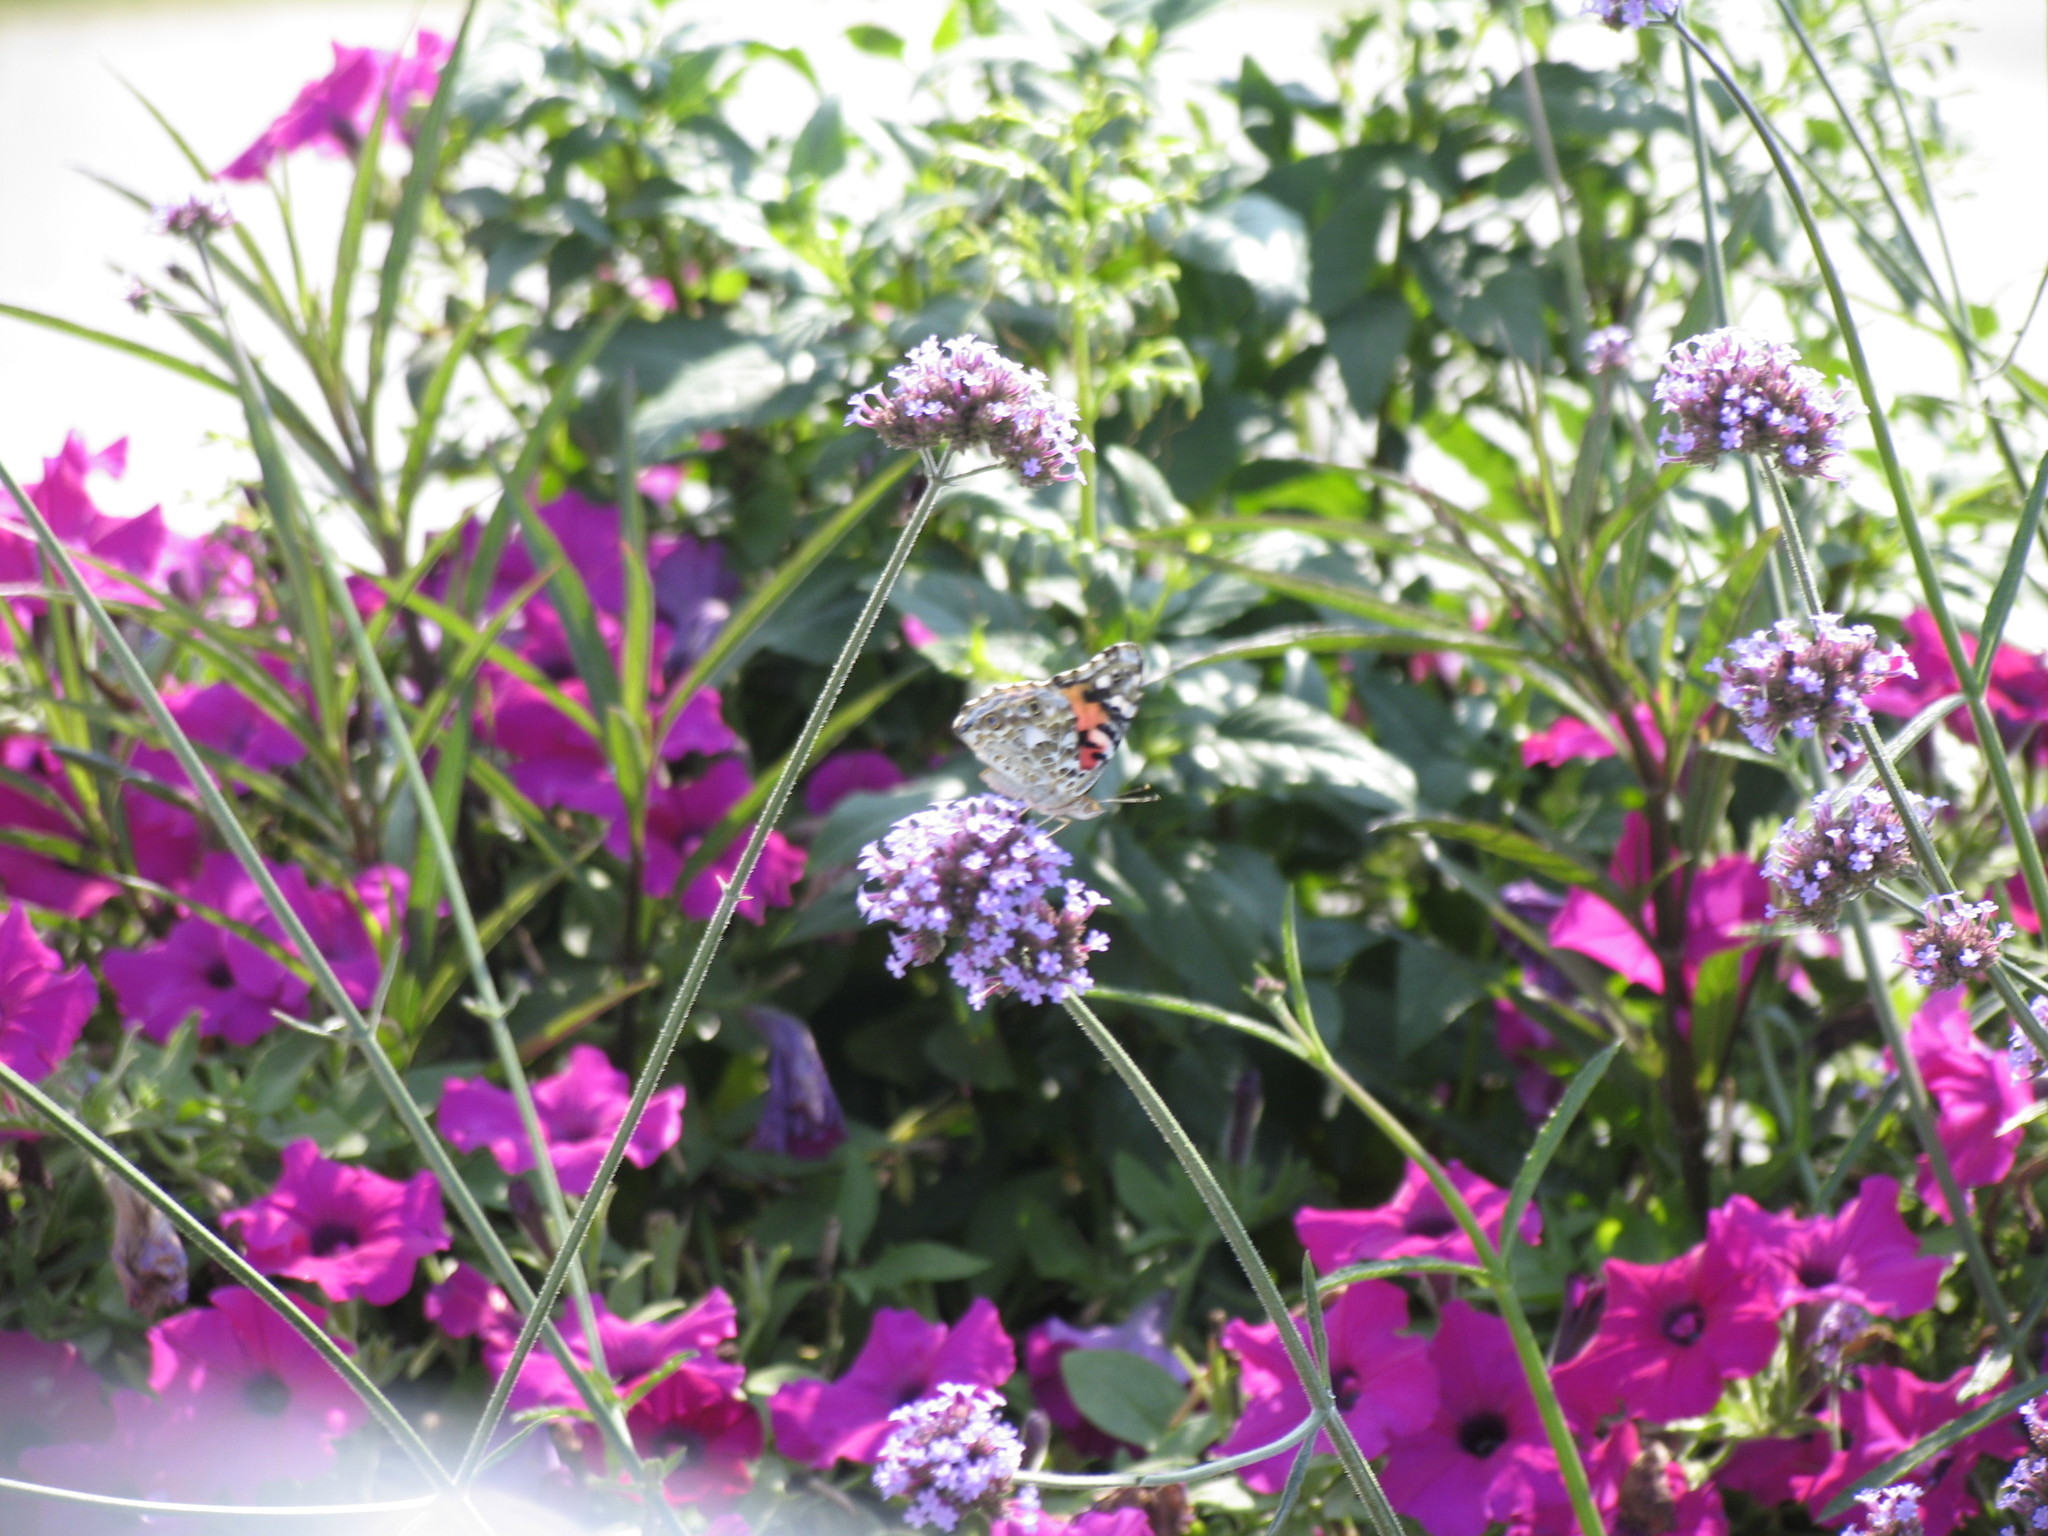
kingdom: Animalia
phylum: Arthropoda
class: Insecta
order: Lepidoptera
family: Nymphalidae
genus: Vanessa
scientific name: Vanessa cardui
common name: Painted lady
